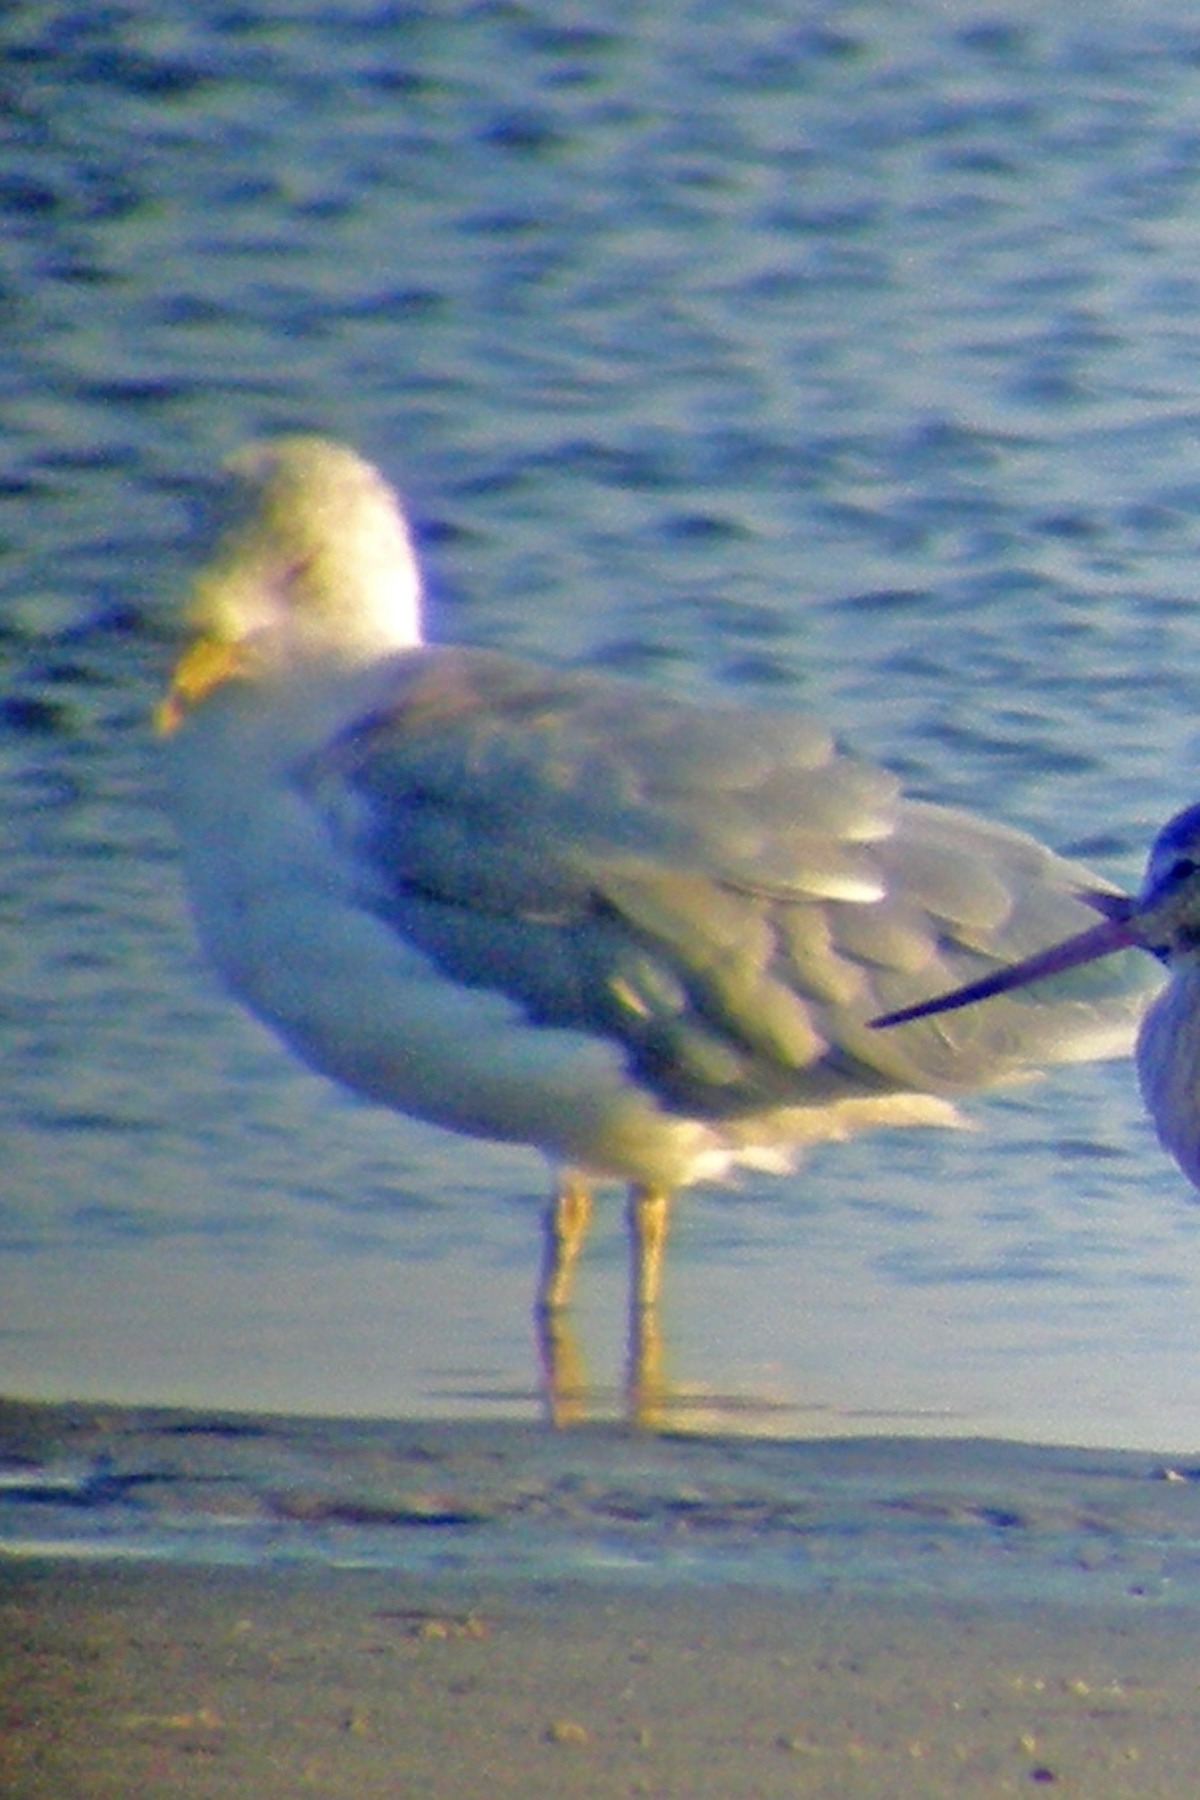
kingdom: Animalia
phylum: Chordata
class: Aves
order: Charadriiformes
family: Laridae
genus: Larus
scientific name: Larus delawarensis
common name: Ring-billed gull
